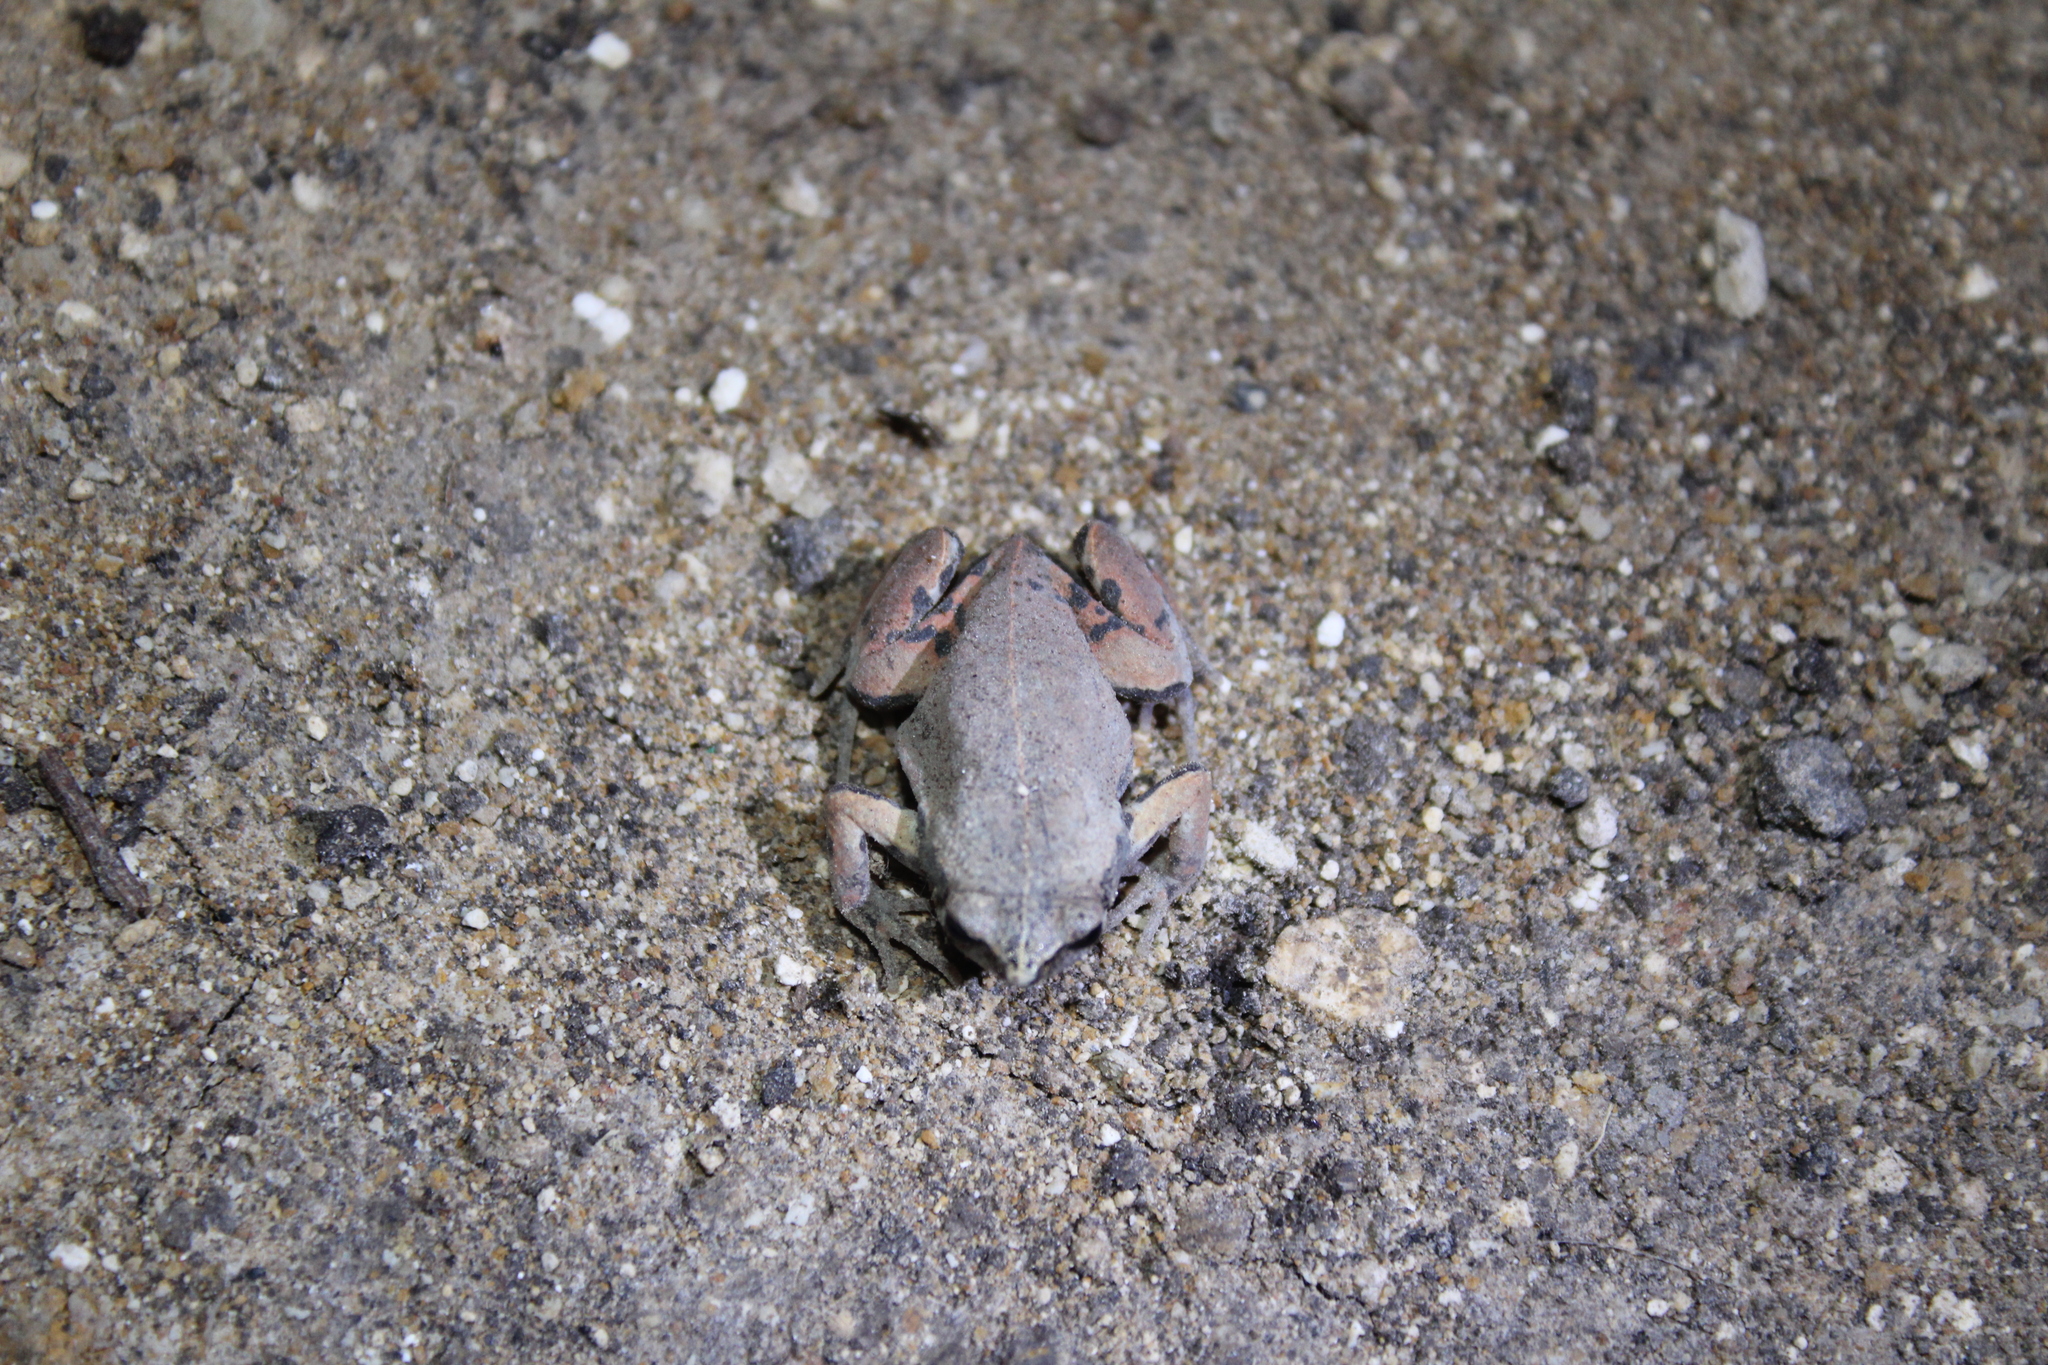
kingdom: Animalia
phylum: Chordata
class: Amphibia
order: Anura
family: Microhylidae
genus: Hypopachus
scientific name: Hypopachus variolosus
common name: Sheep frog
